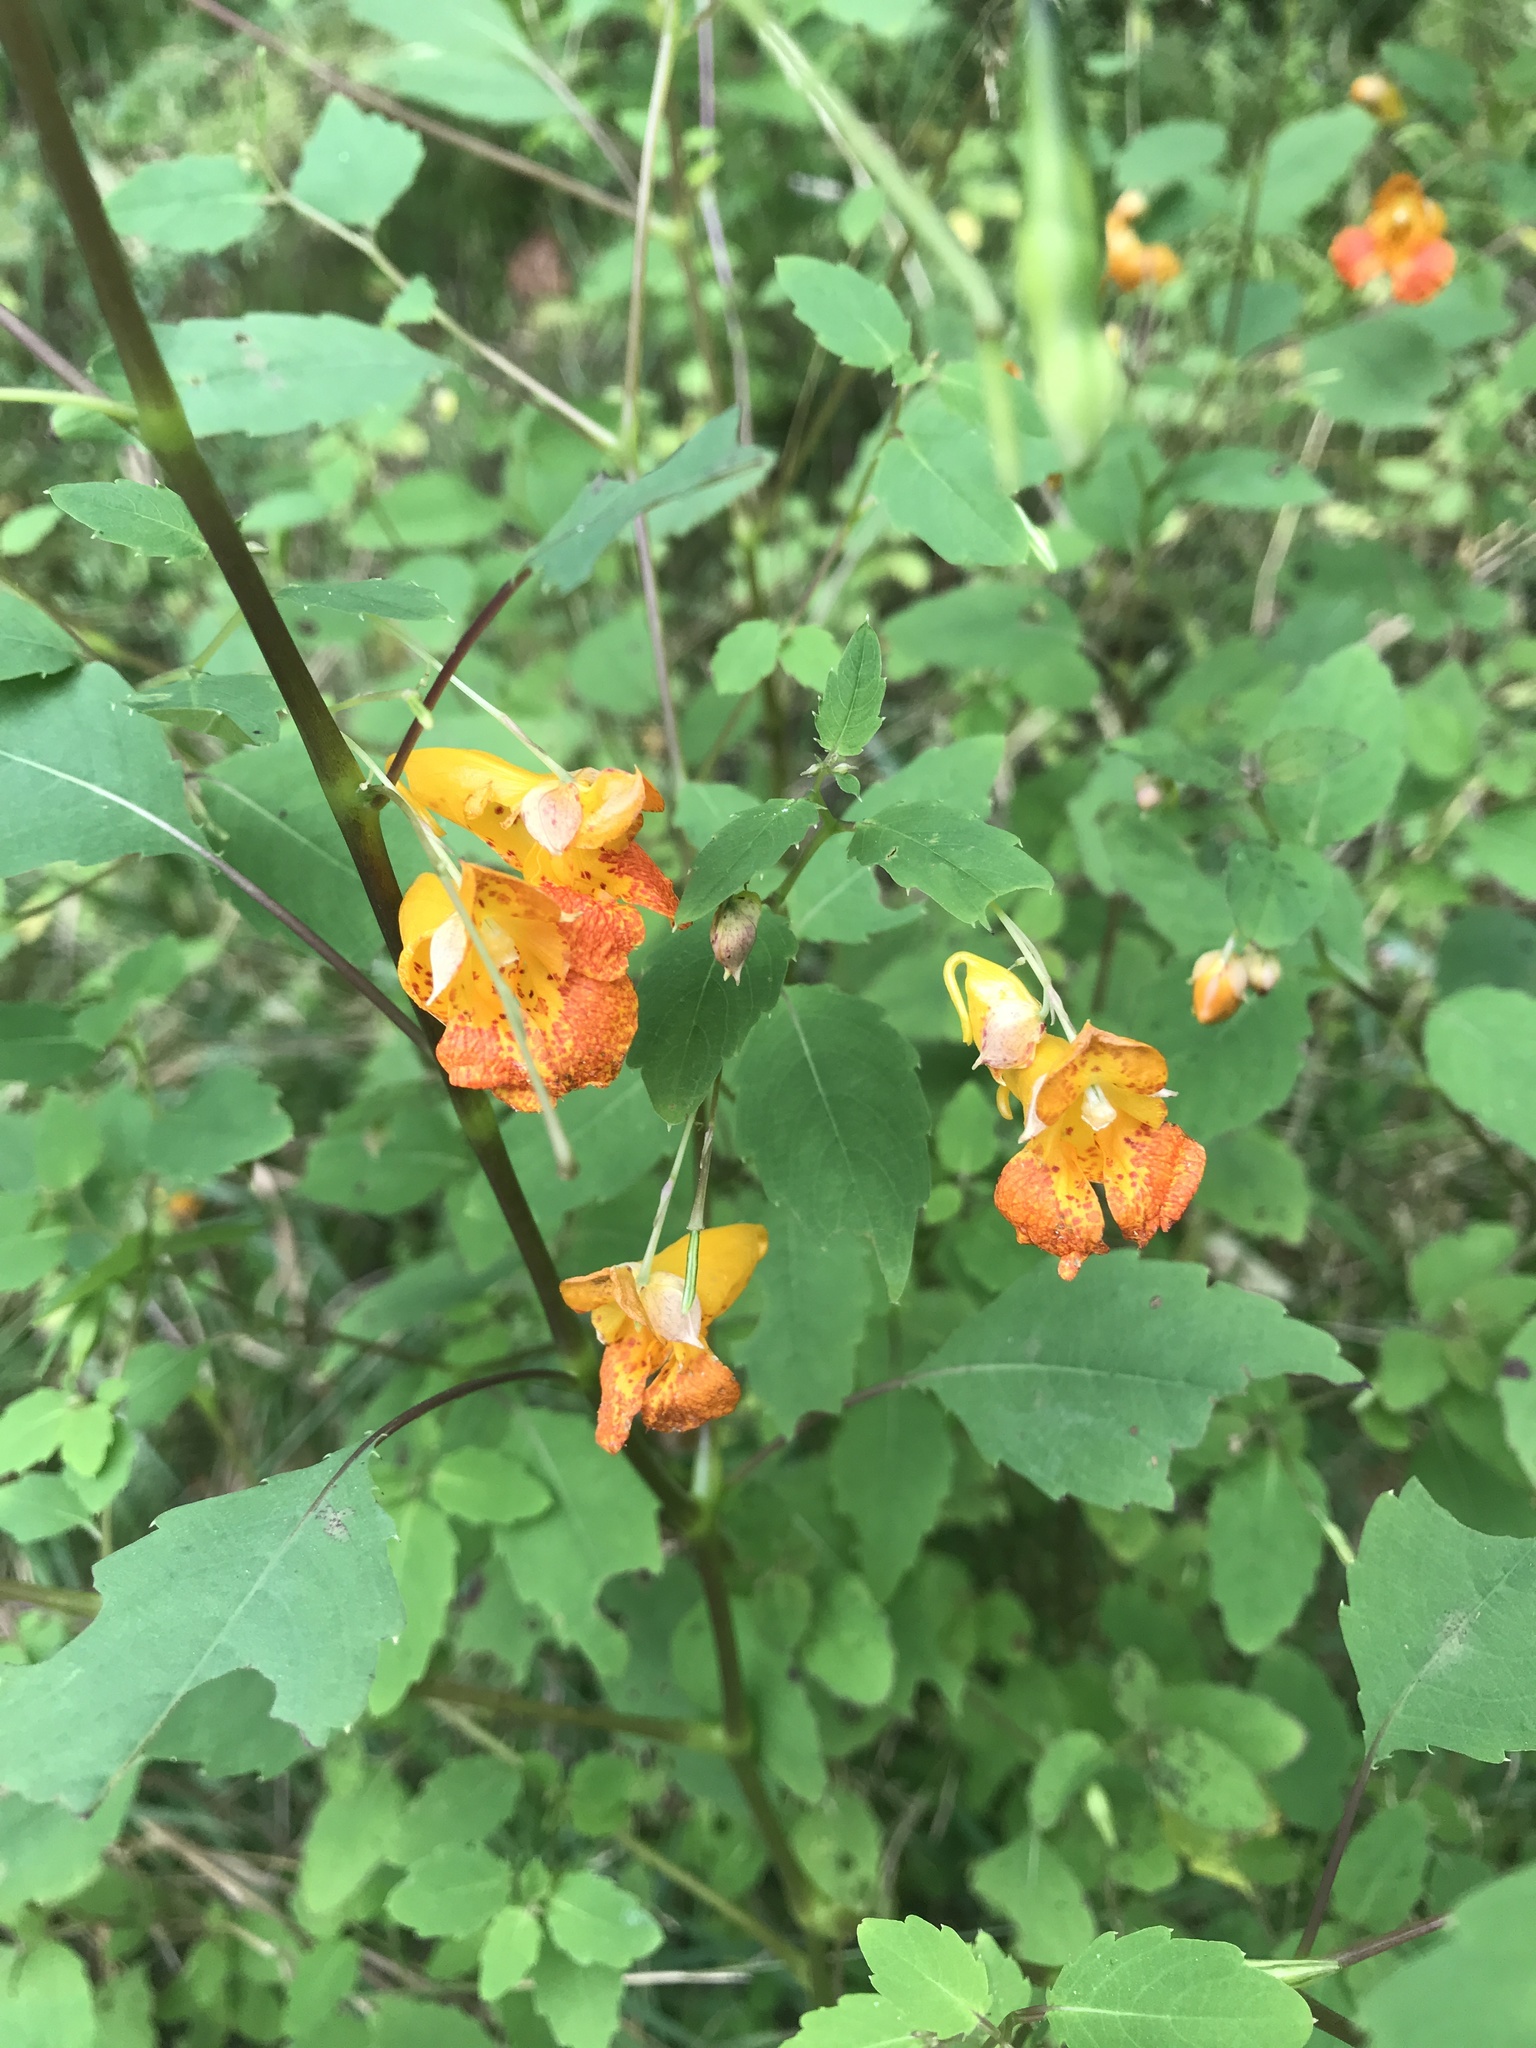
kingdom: Plantae
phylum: Tracheophyta
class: Magnoliopsida
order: Ericales
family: Balsaminaceae
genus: Impatiens
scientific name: Impatiens capensis
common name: Orange balsam
